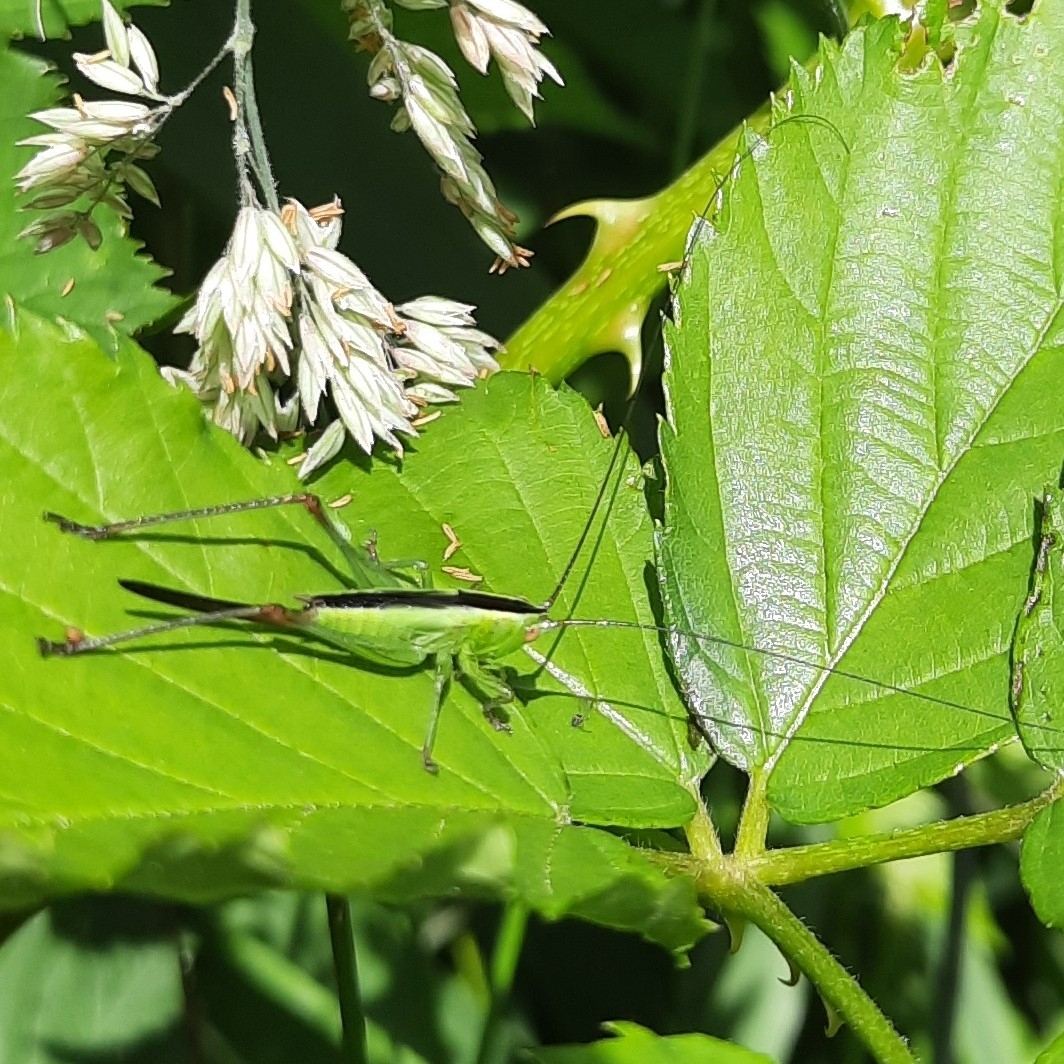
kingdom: Animalia
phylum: Arthropoda
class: Insecta
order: Orthoptera
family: Tettigoniidae
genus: Conocephalus
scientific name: Conocephalus fuscus
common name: Long-winged conehead
